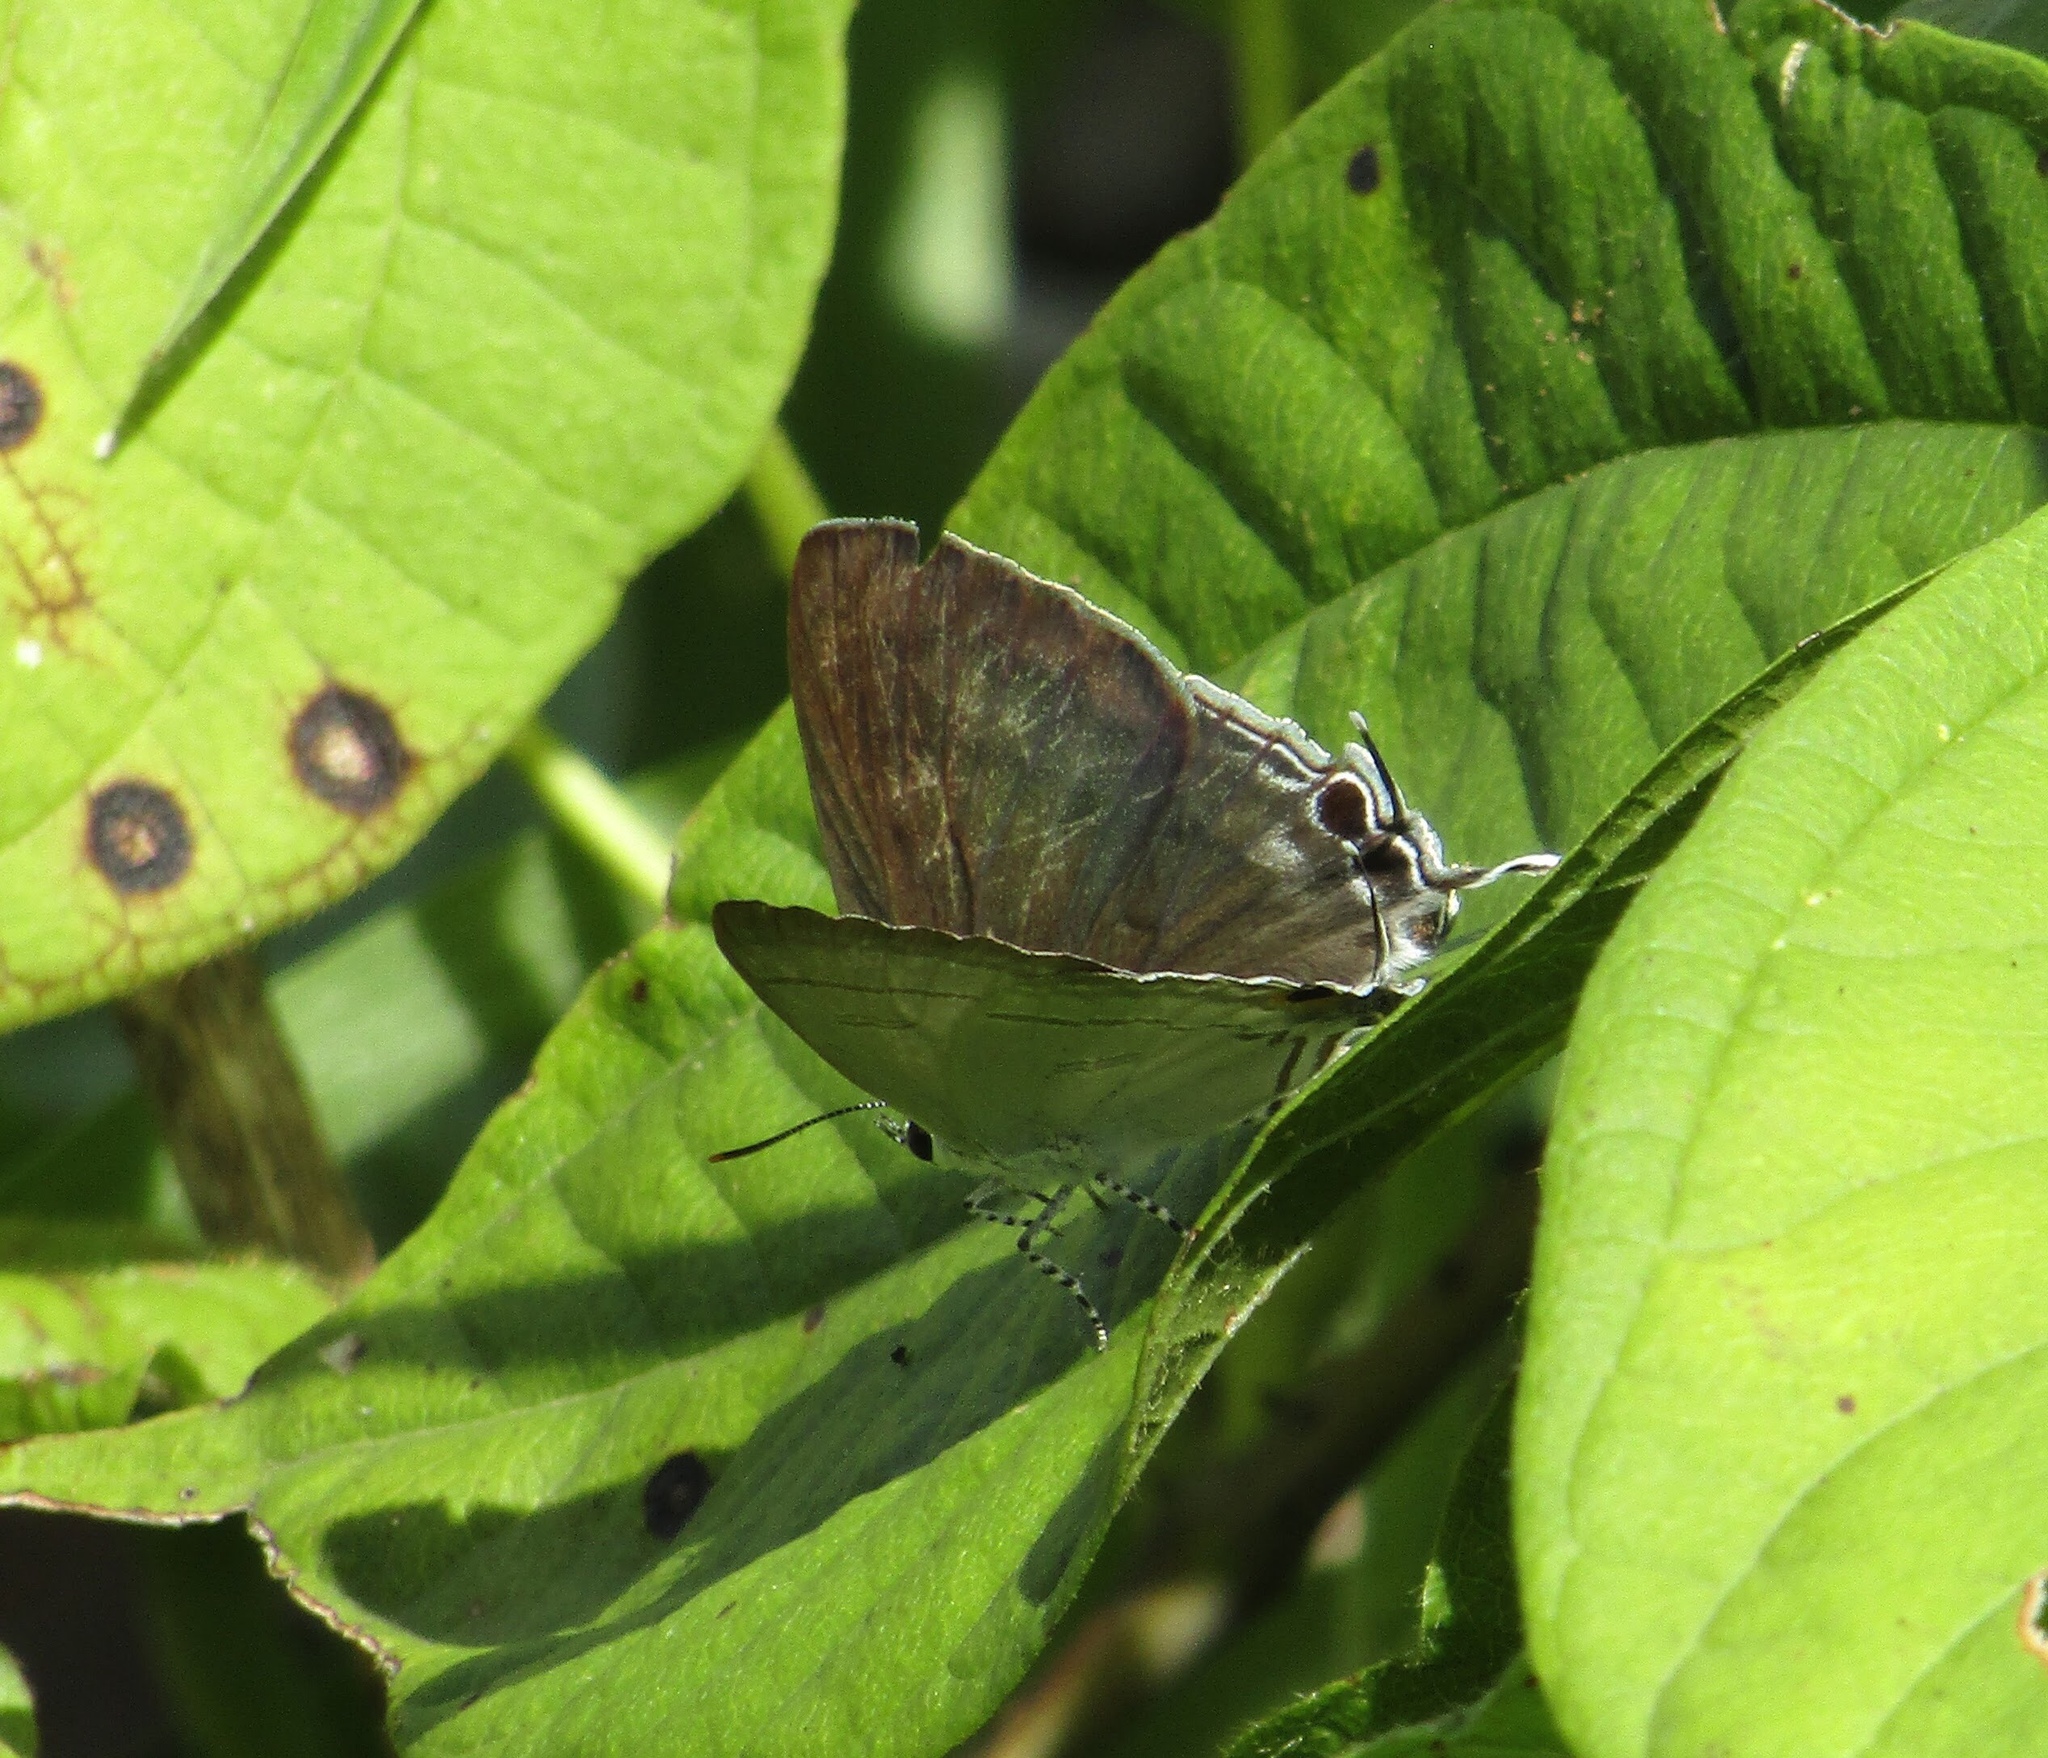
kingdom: Animalia
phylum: Arthropoda
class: Insecta
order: Lepidoptera
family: Lycaenidae
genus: Hypolycaena
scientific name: Hypolycaena erylus
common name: Common tit
